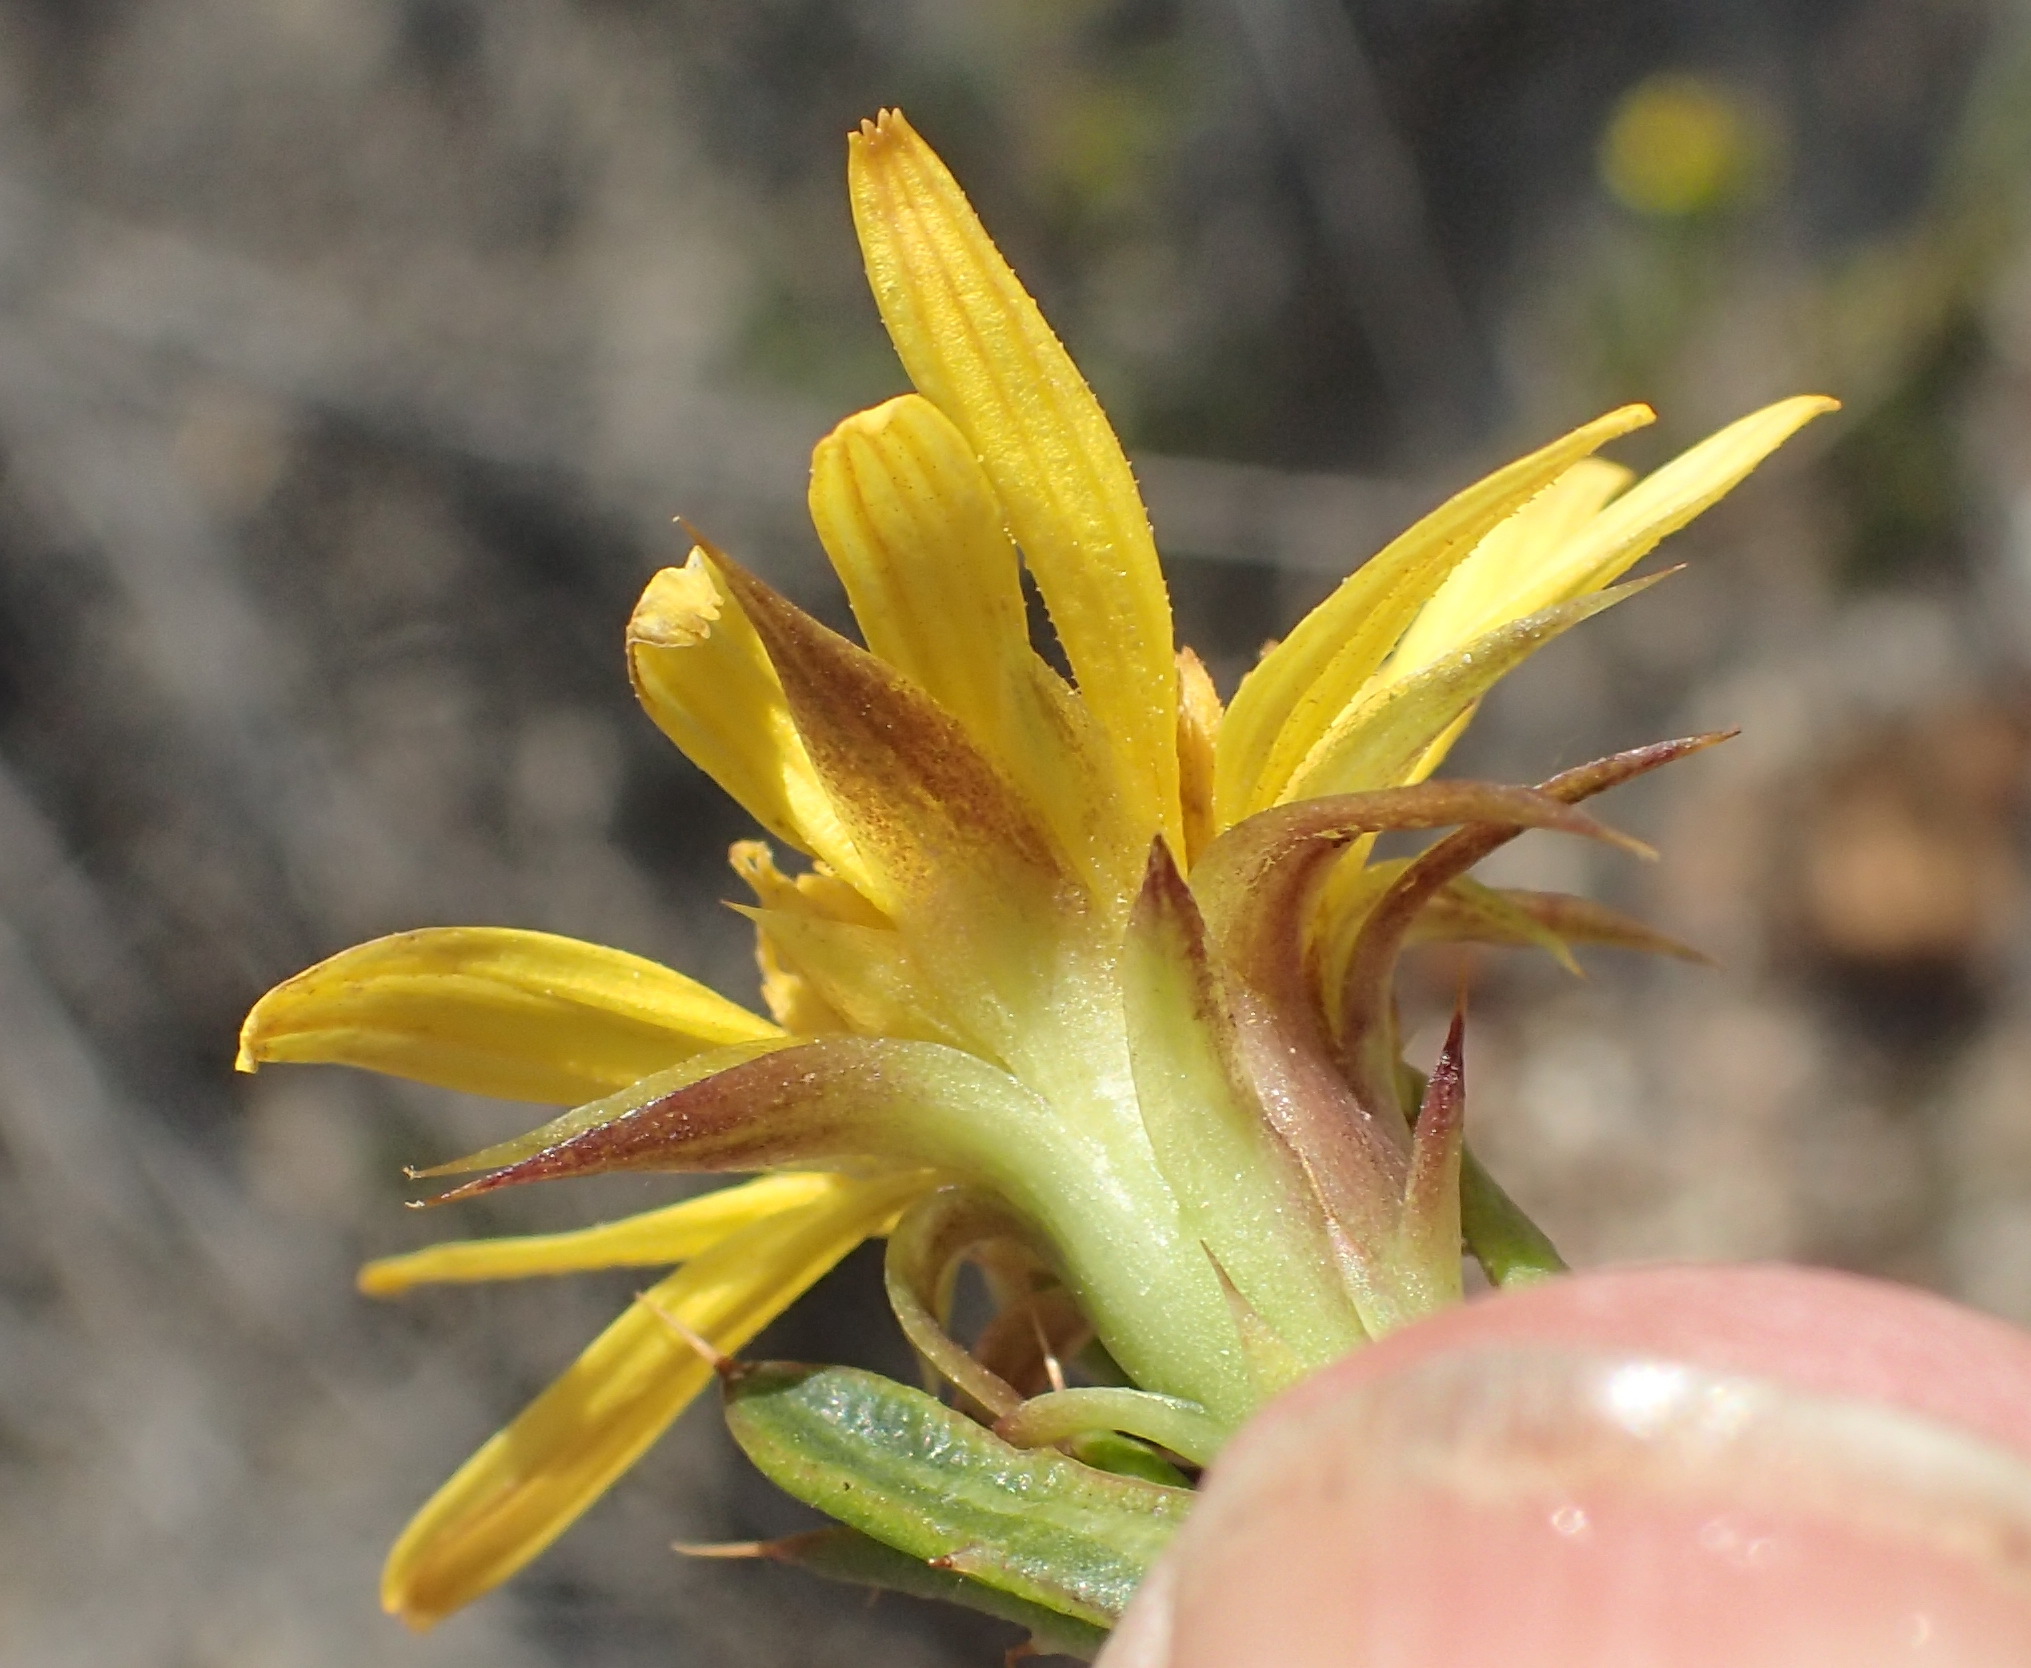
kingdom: Plantae
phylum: Tracheophyta
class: Magnoliopsida
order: Asterales
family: Asteraceae
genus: Cullumia
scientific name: Cullumia aculeata
